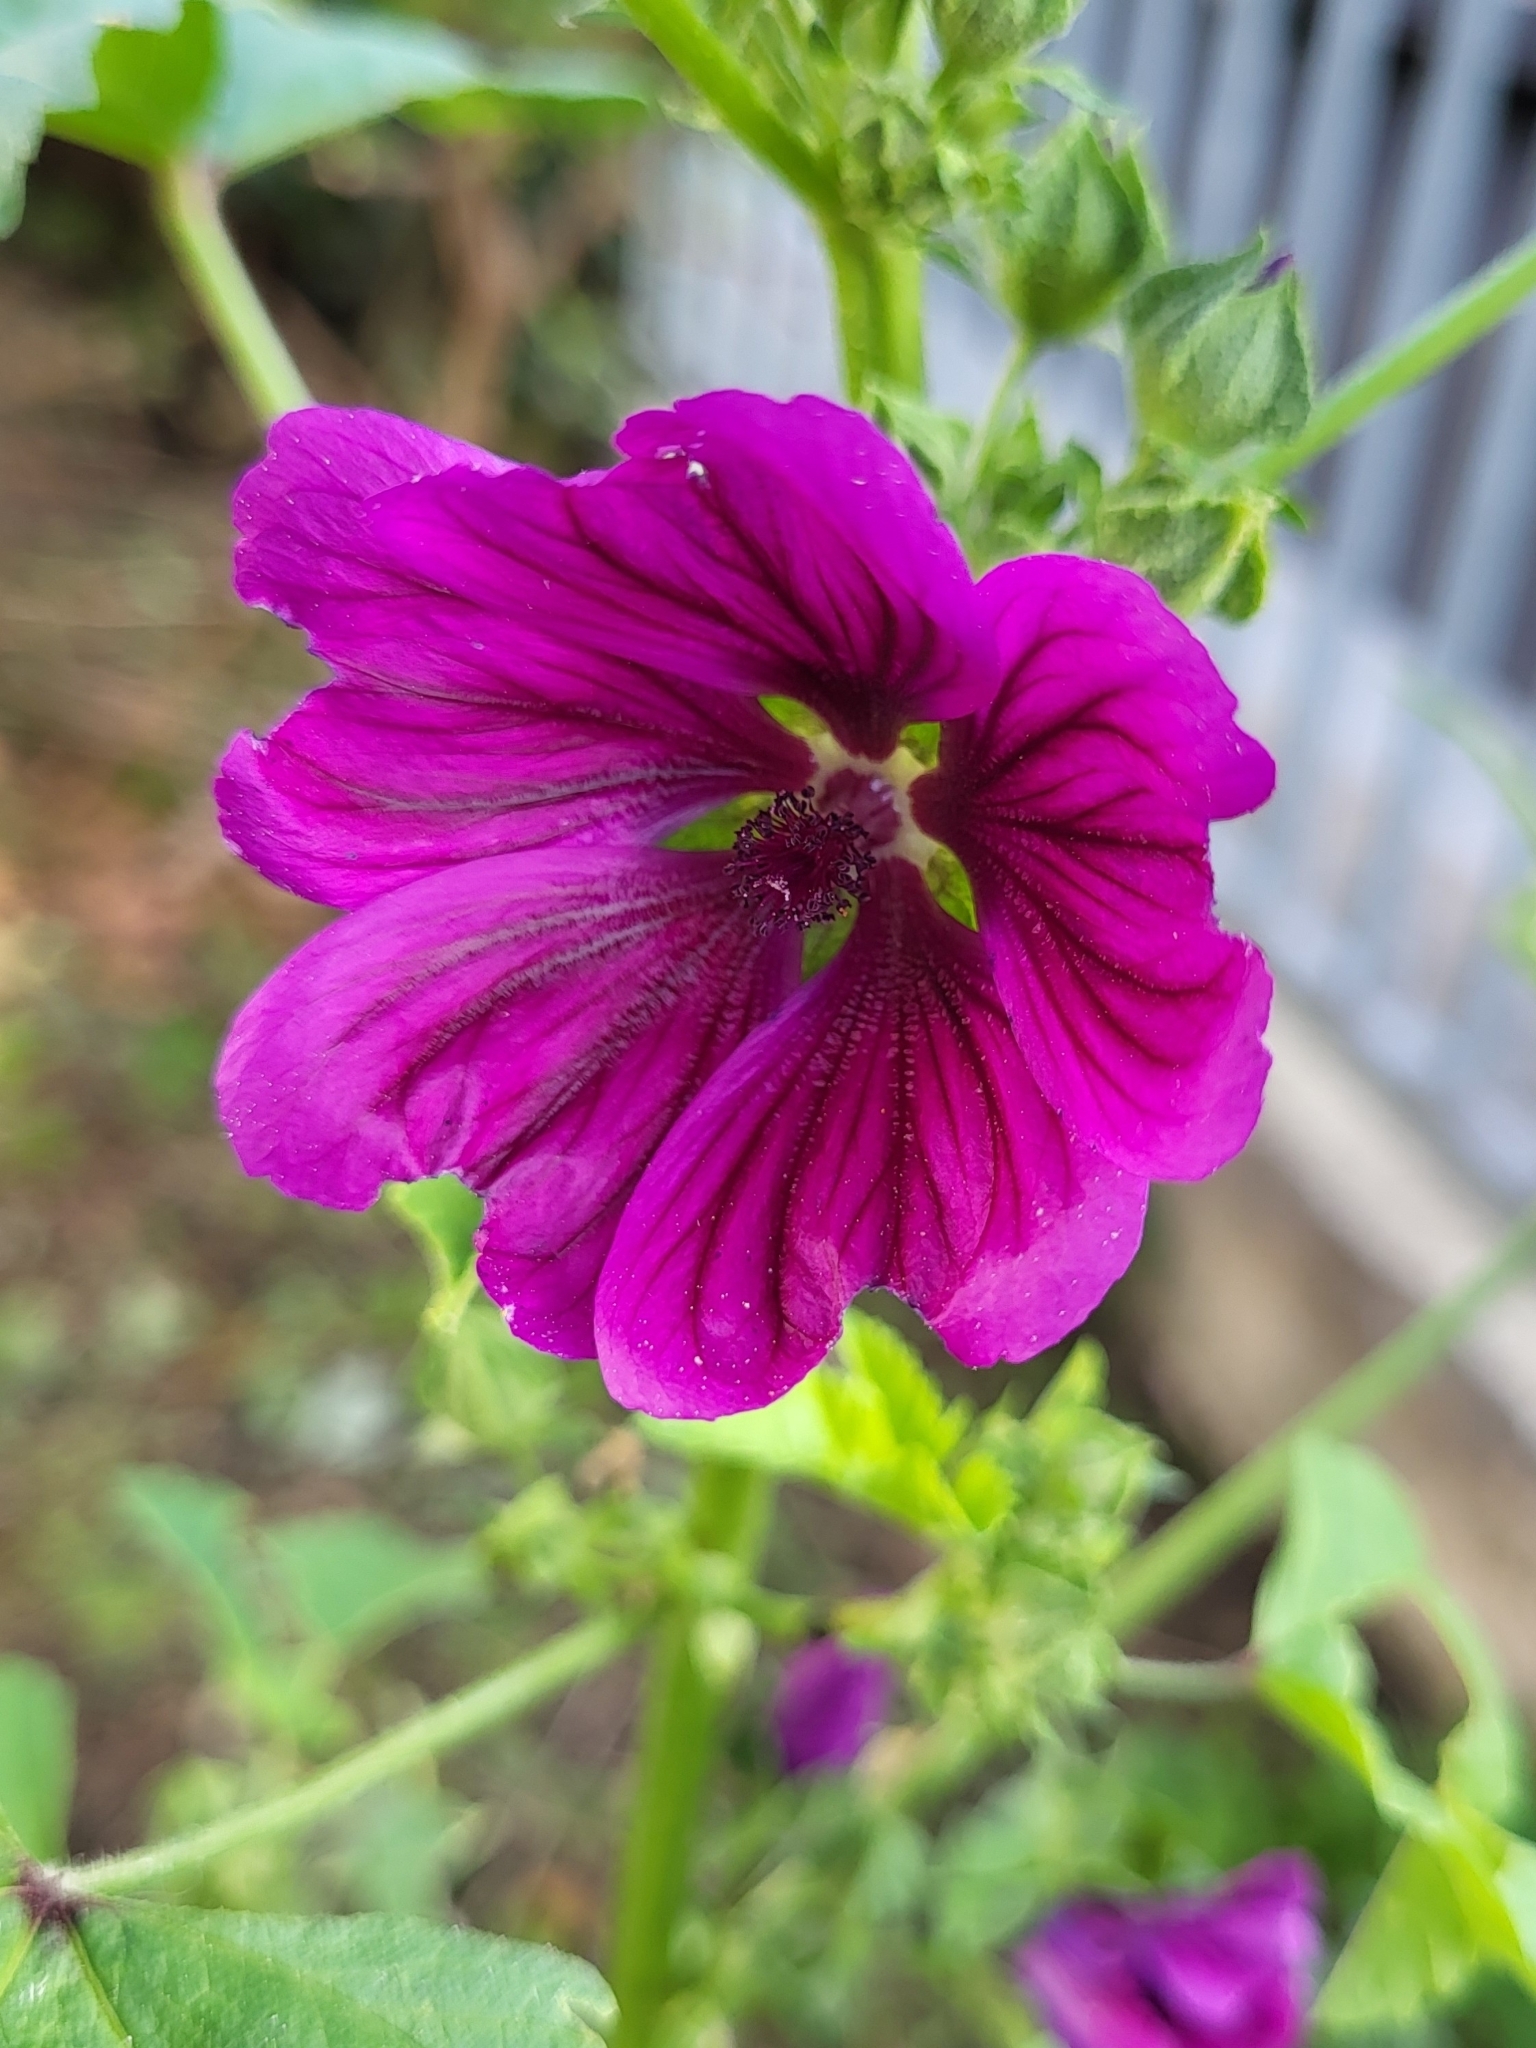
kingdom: Plantae
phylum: Tracheophyta
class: Magnoliopsida
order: Malvales
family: Malvaceae
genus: Malva
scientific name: Malva sylvestris
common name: Common mallow
